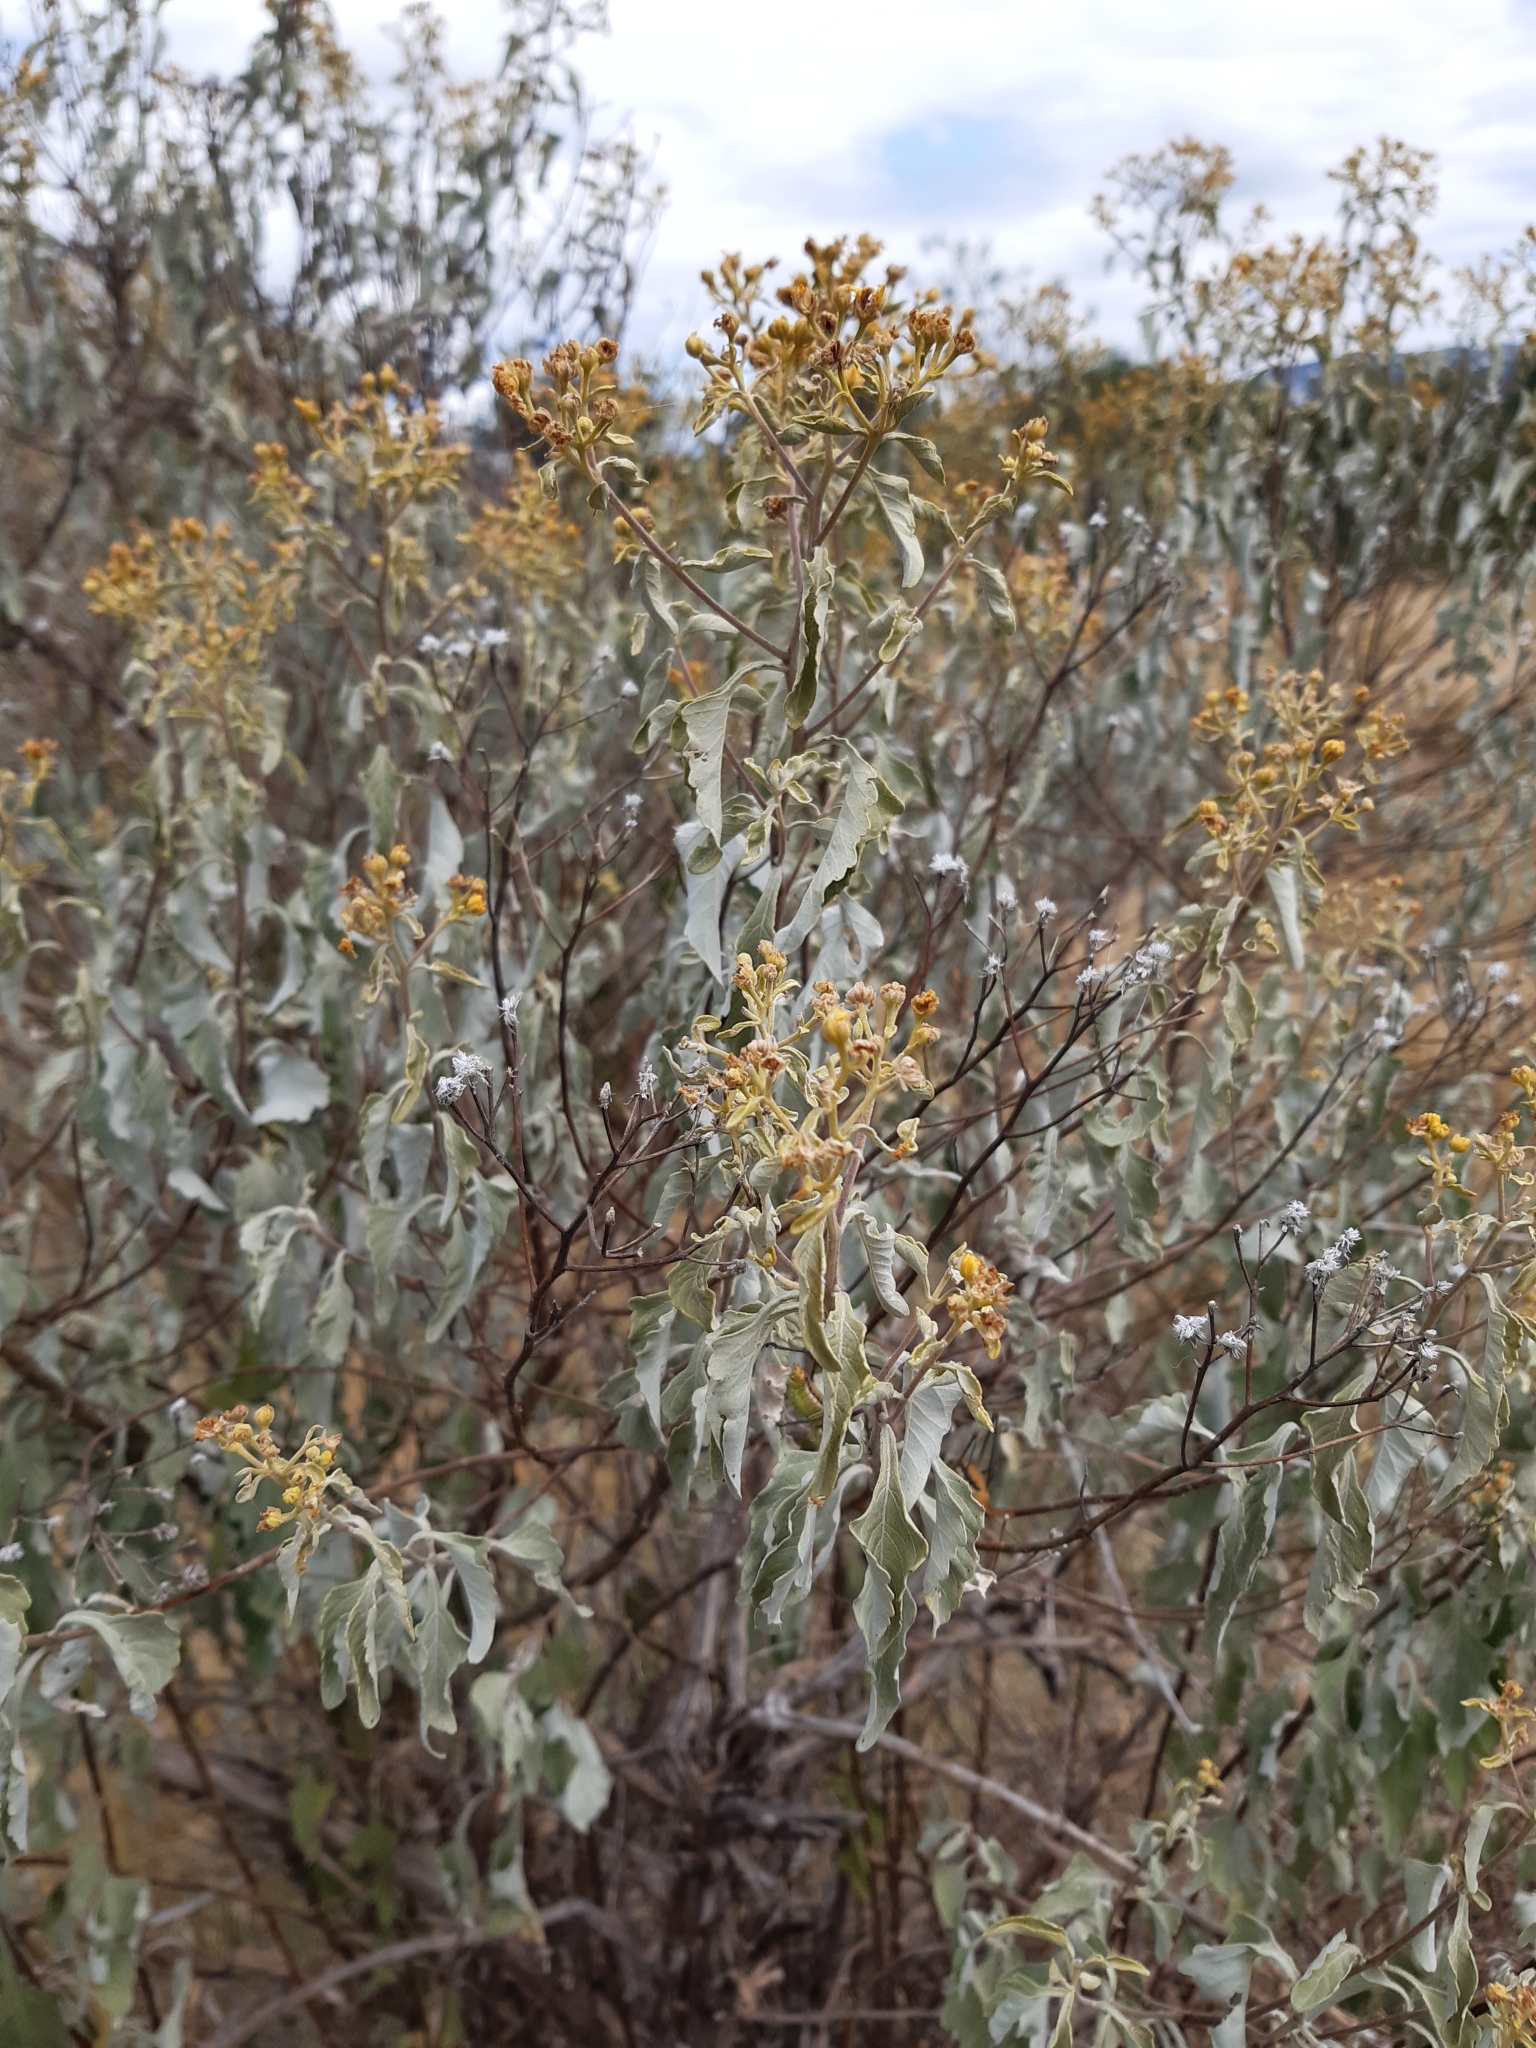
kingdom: Plantae
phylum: Tracheophyta
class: Magnoliopsida
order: Asterales
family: Asteraceae
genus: Zaluzania
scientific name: Zaluzania augusta
